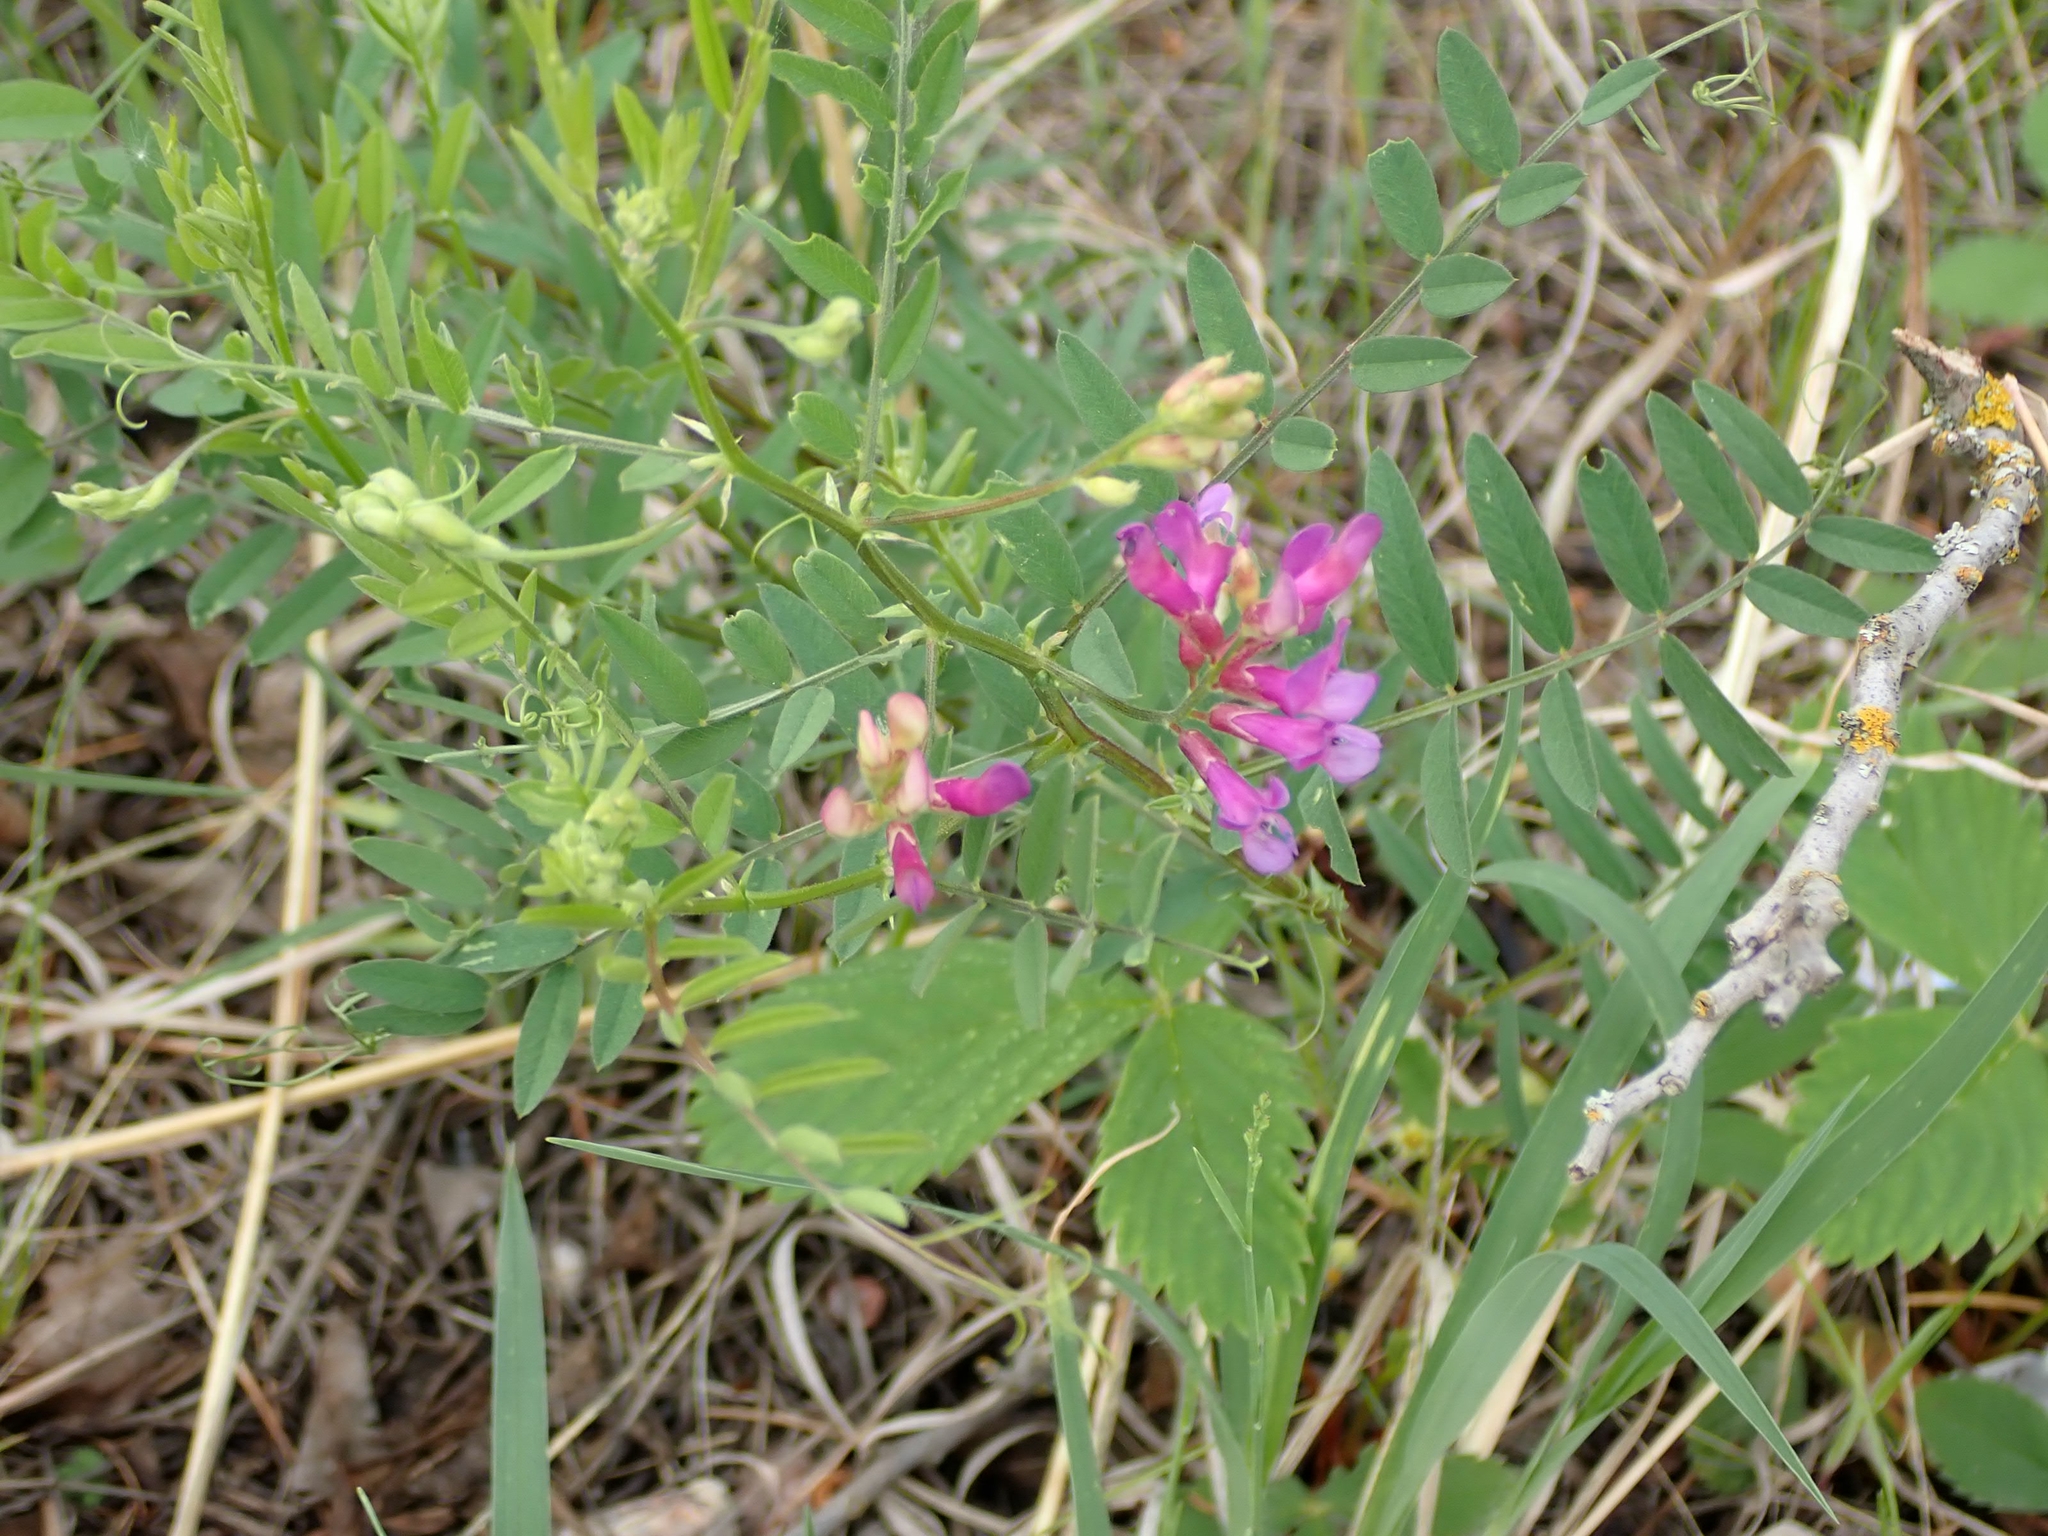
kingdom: Plantae
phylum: Tracheophyta
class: Magnoliopsida
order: Fabales
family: Fabaceae
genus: Vicia
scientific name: Vicia americana
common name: American vetch
